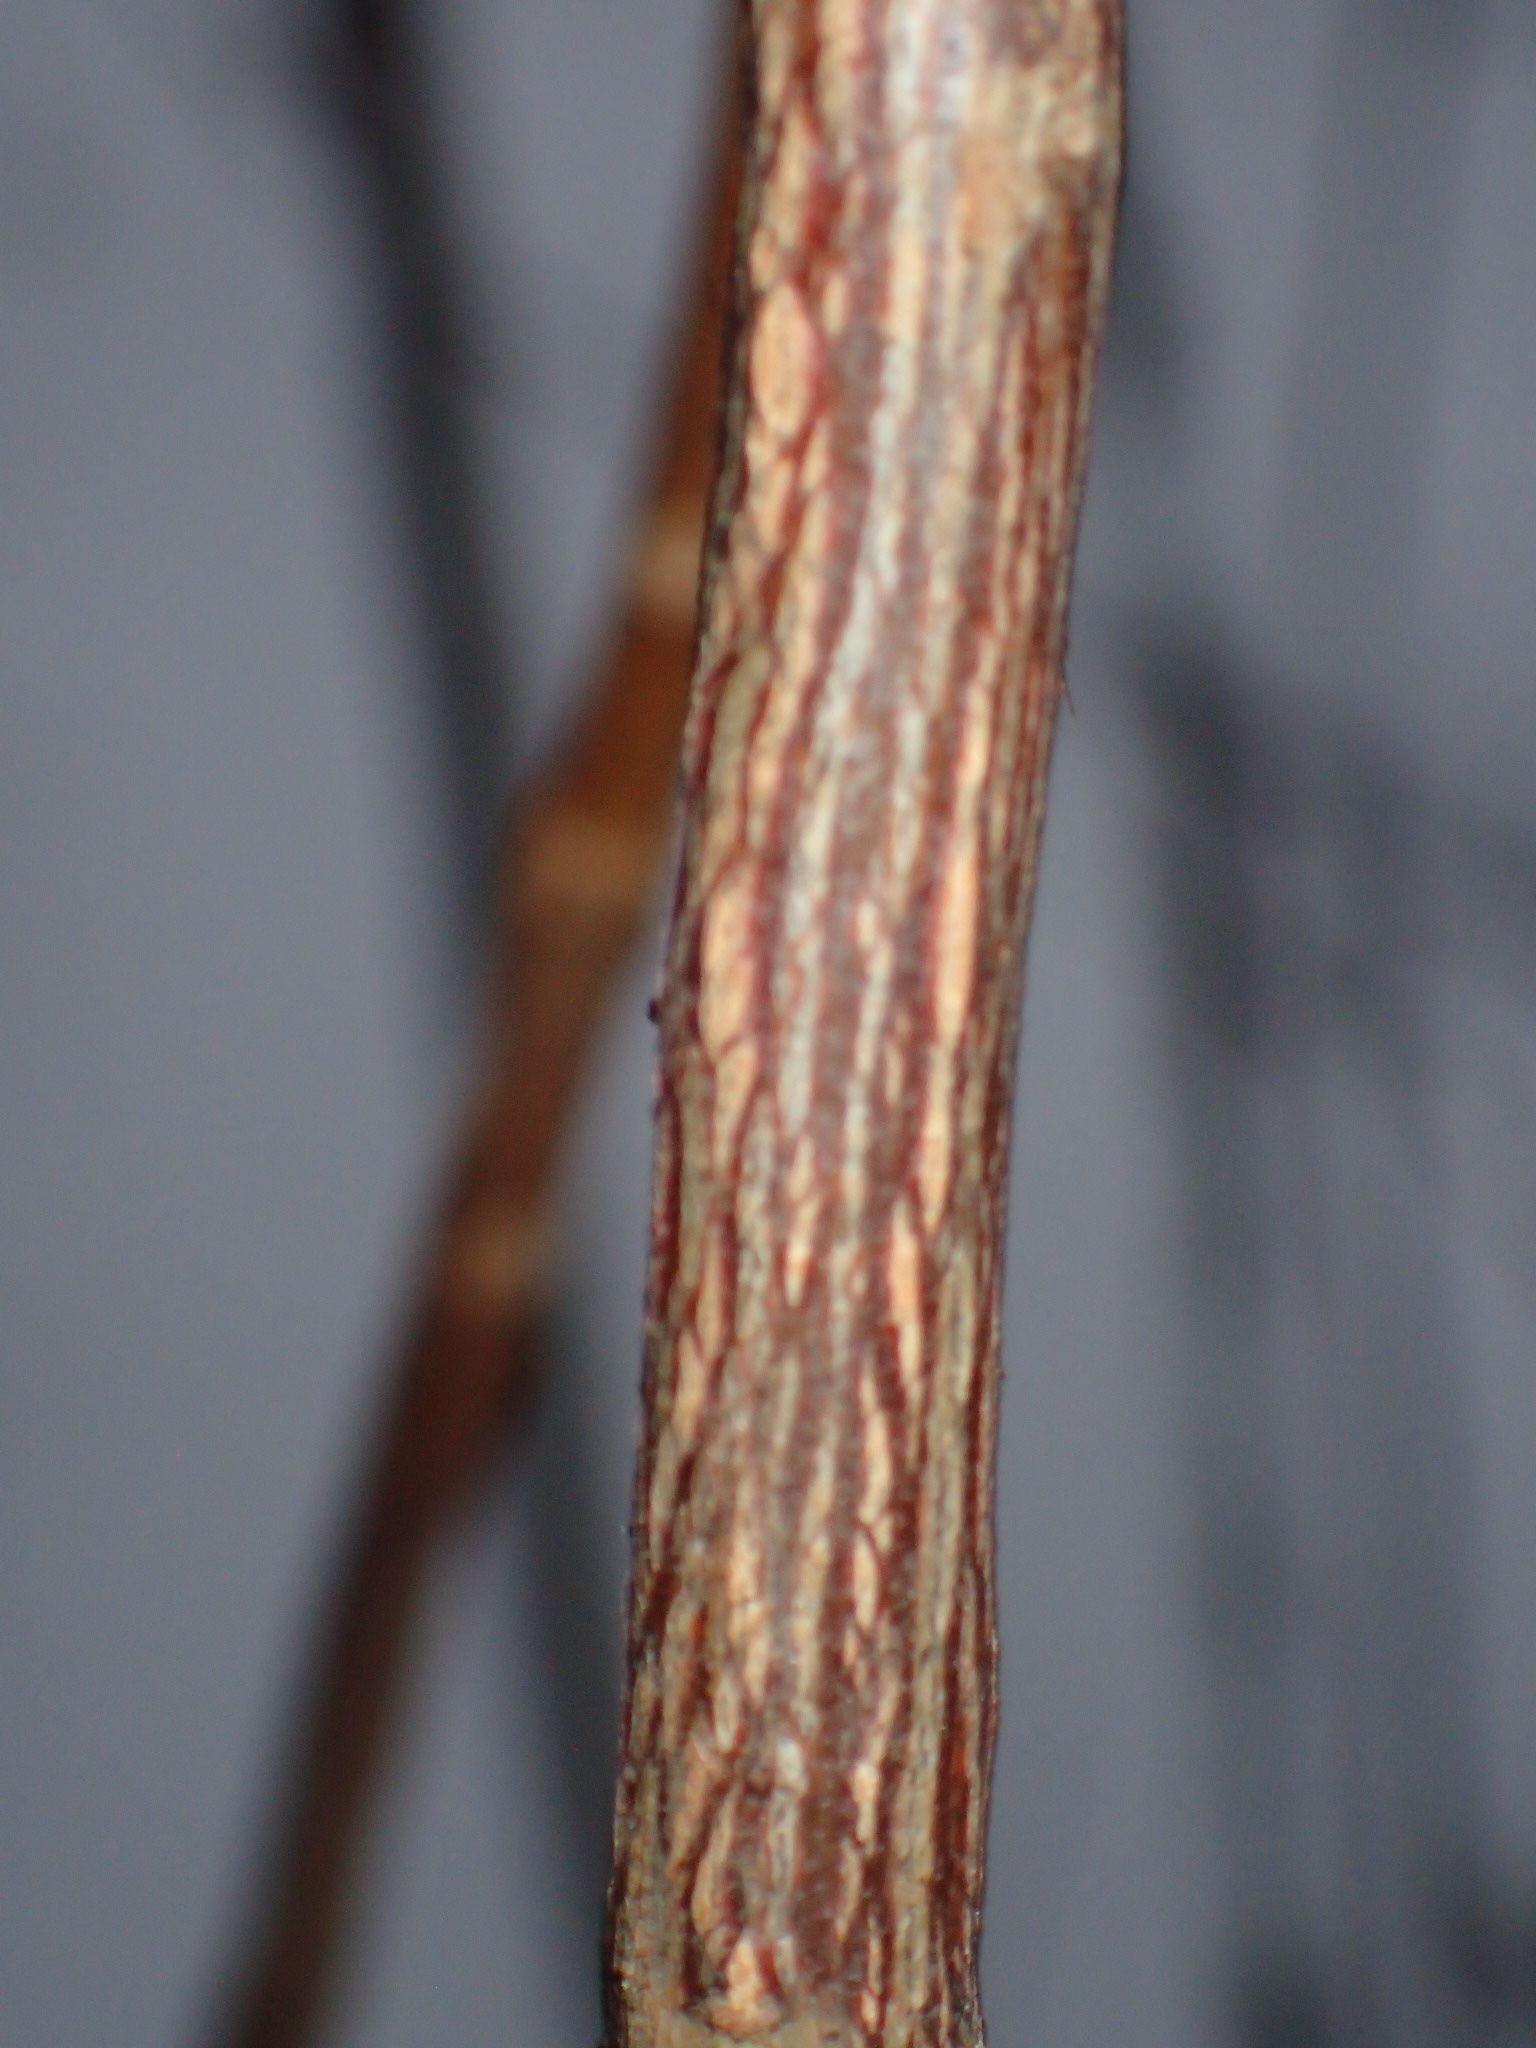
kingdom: Plantae
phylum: Tracheophyta
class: Magnoliopsida
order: Ericales
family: Clethraceae
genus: Clethra
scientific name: Clethra alnifolia
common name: Sweet pepperbush
